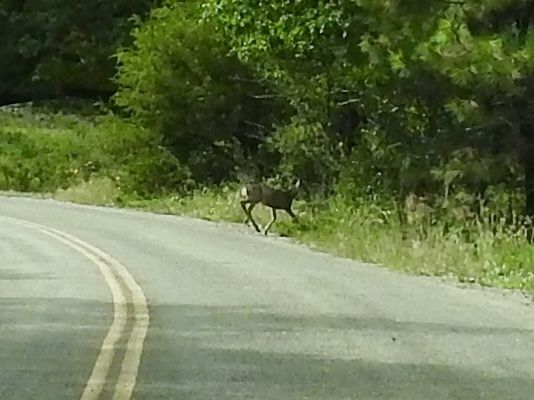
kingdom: Animalia
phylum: Chordata
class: Mammalia
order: Artiodactyla
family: Cervidae
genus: Odocoileus
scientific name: Odocoileus hemionus
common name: Mule deer
